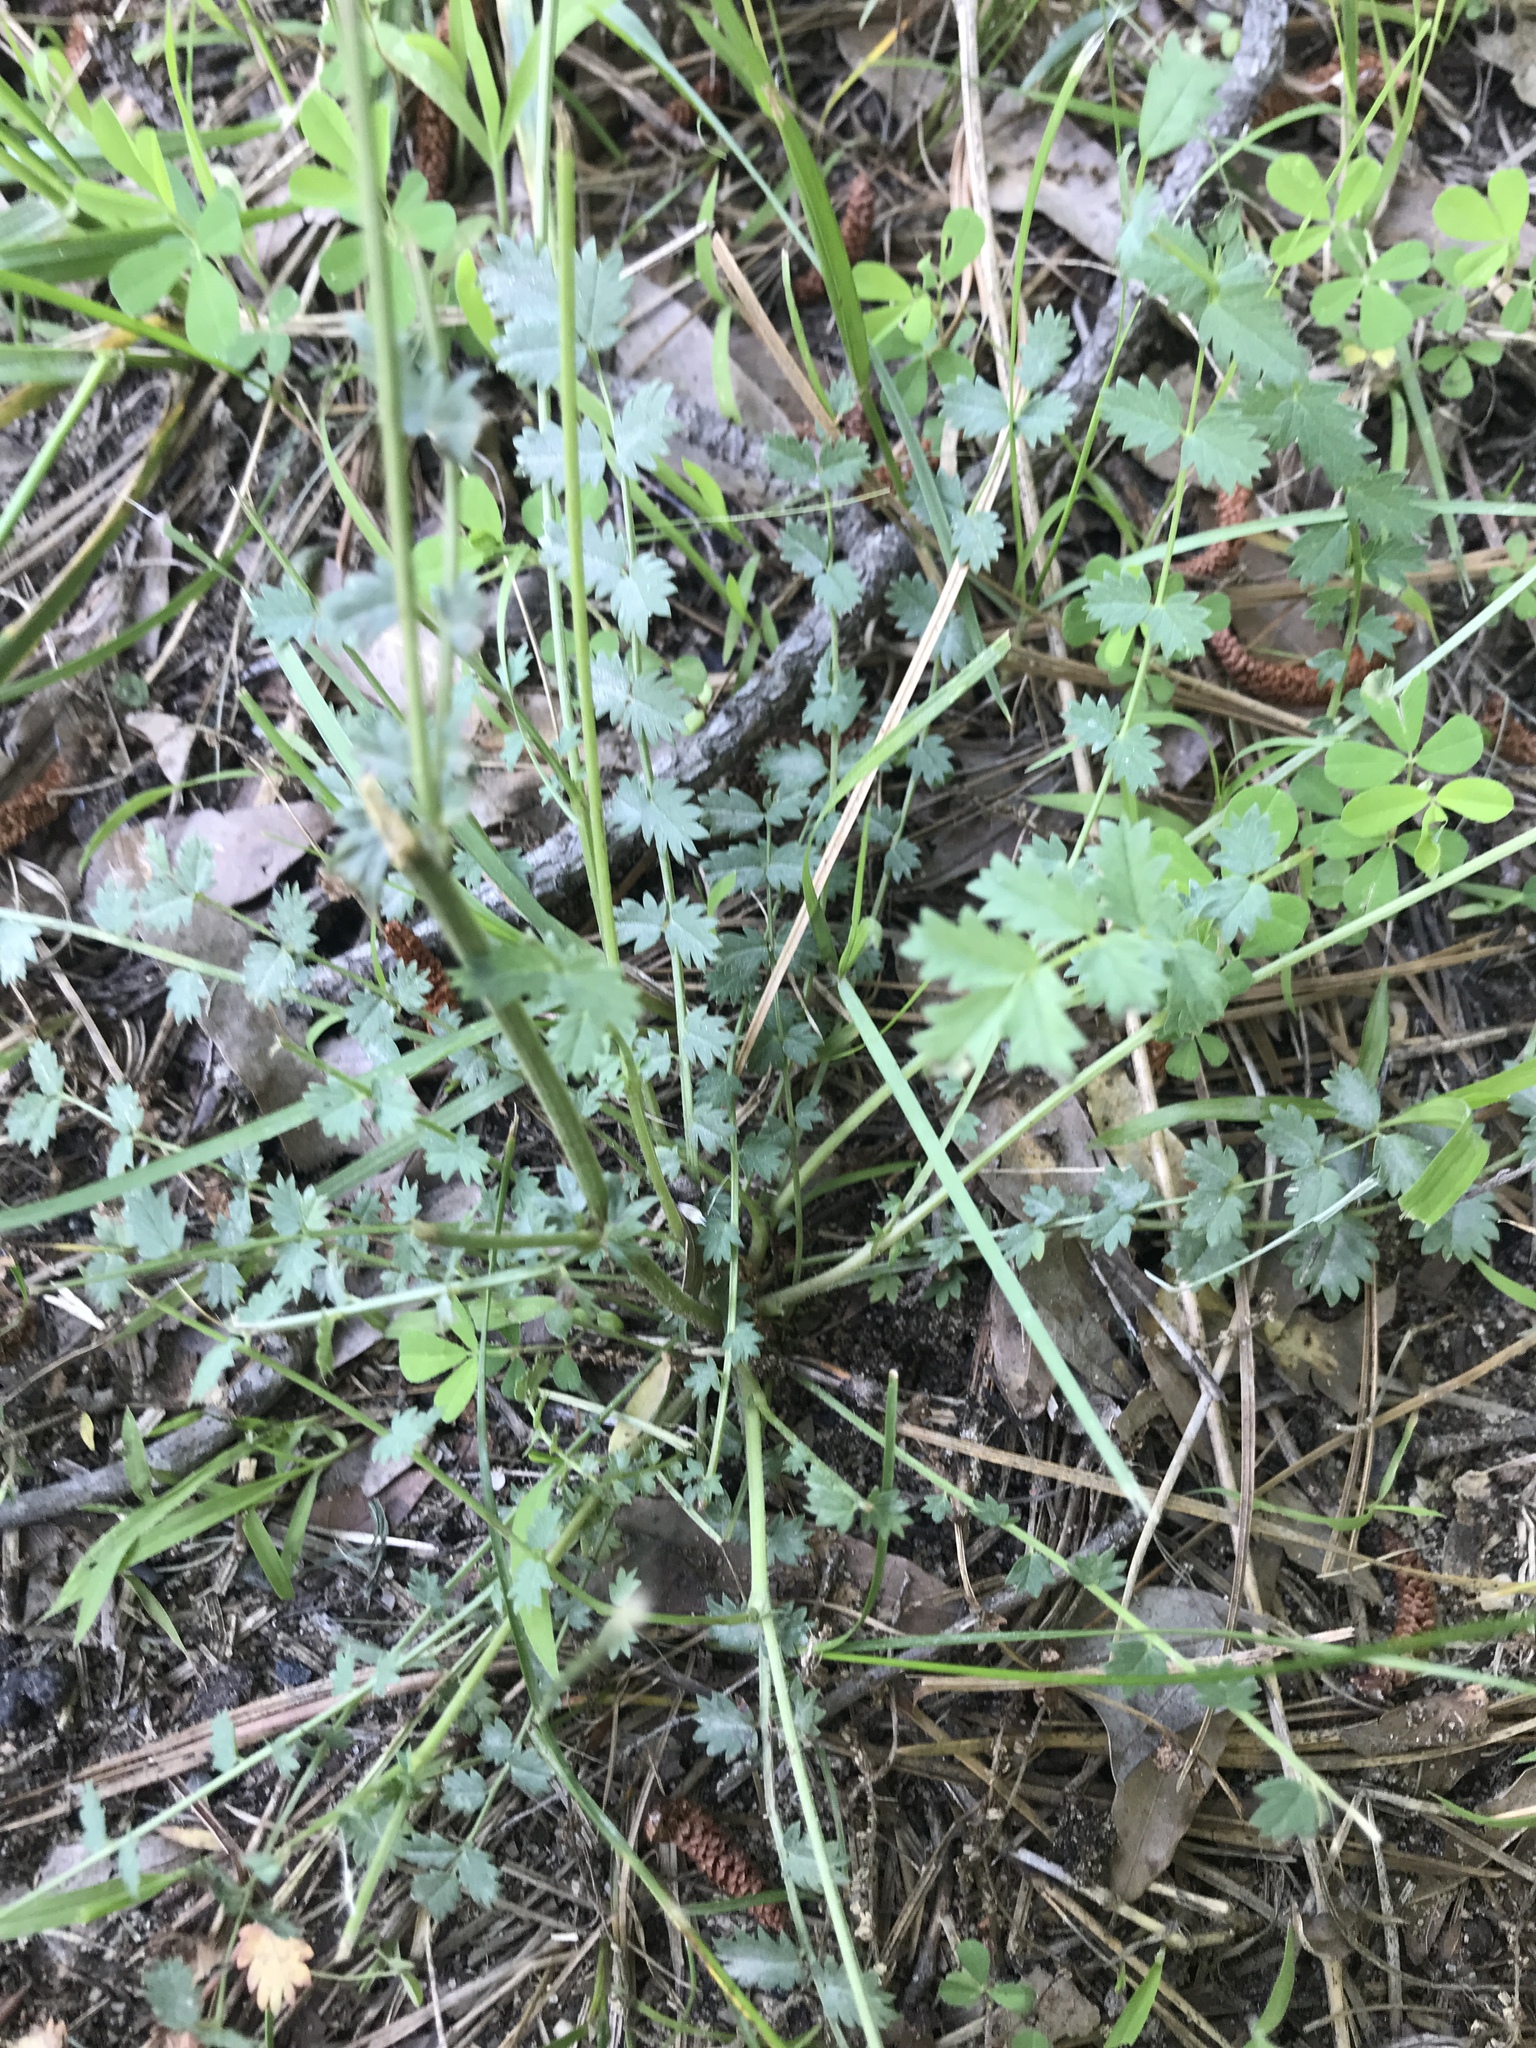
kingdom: Plantae
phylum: Tracheophyta
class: Magnoliopsida
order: Rosales
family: Rosaceae
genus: Poterium
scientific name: Poterium sanguisorba
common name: Salad burnet
